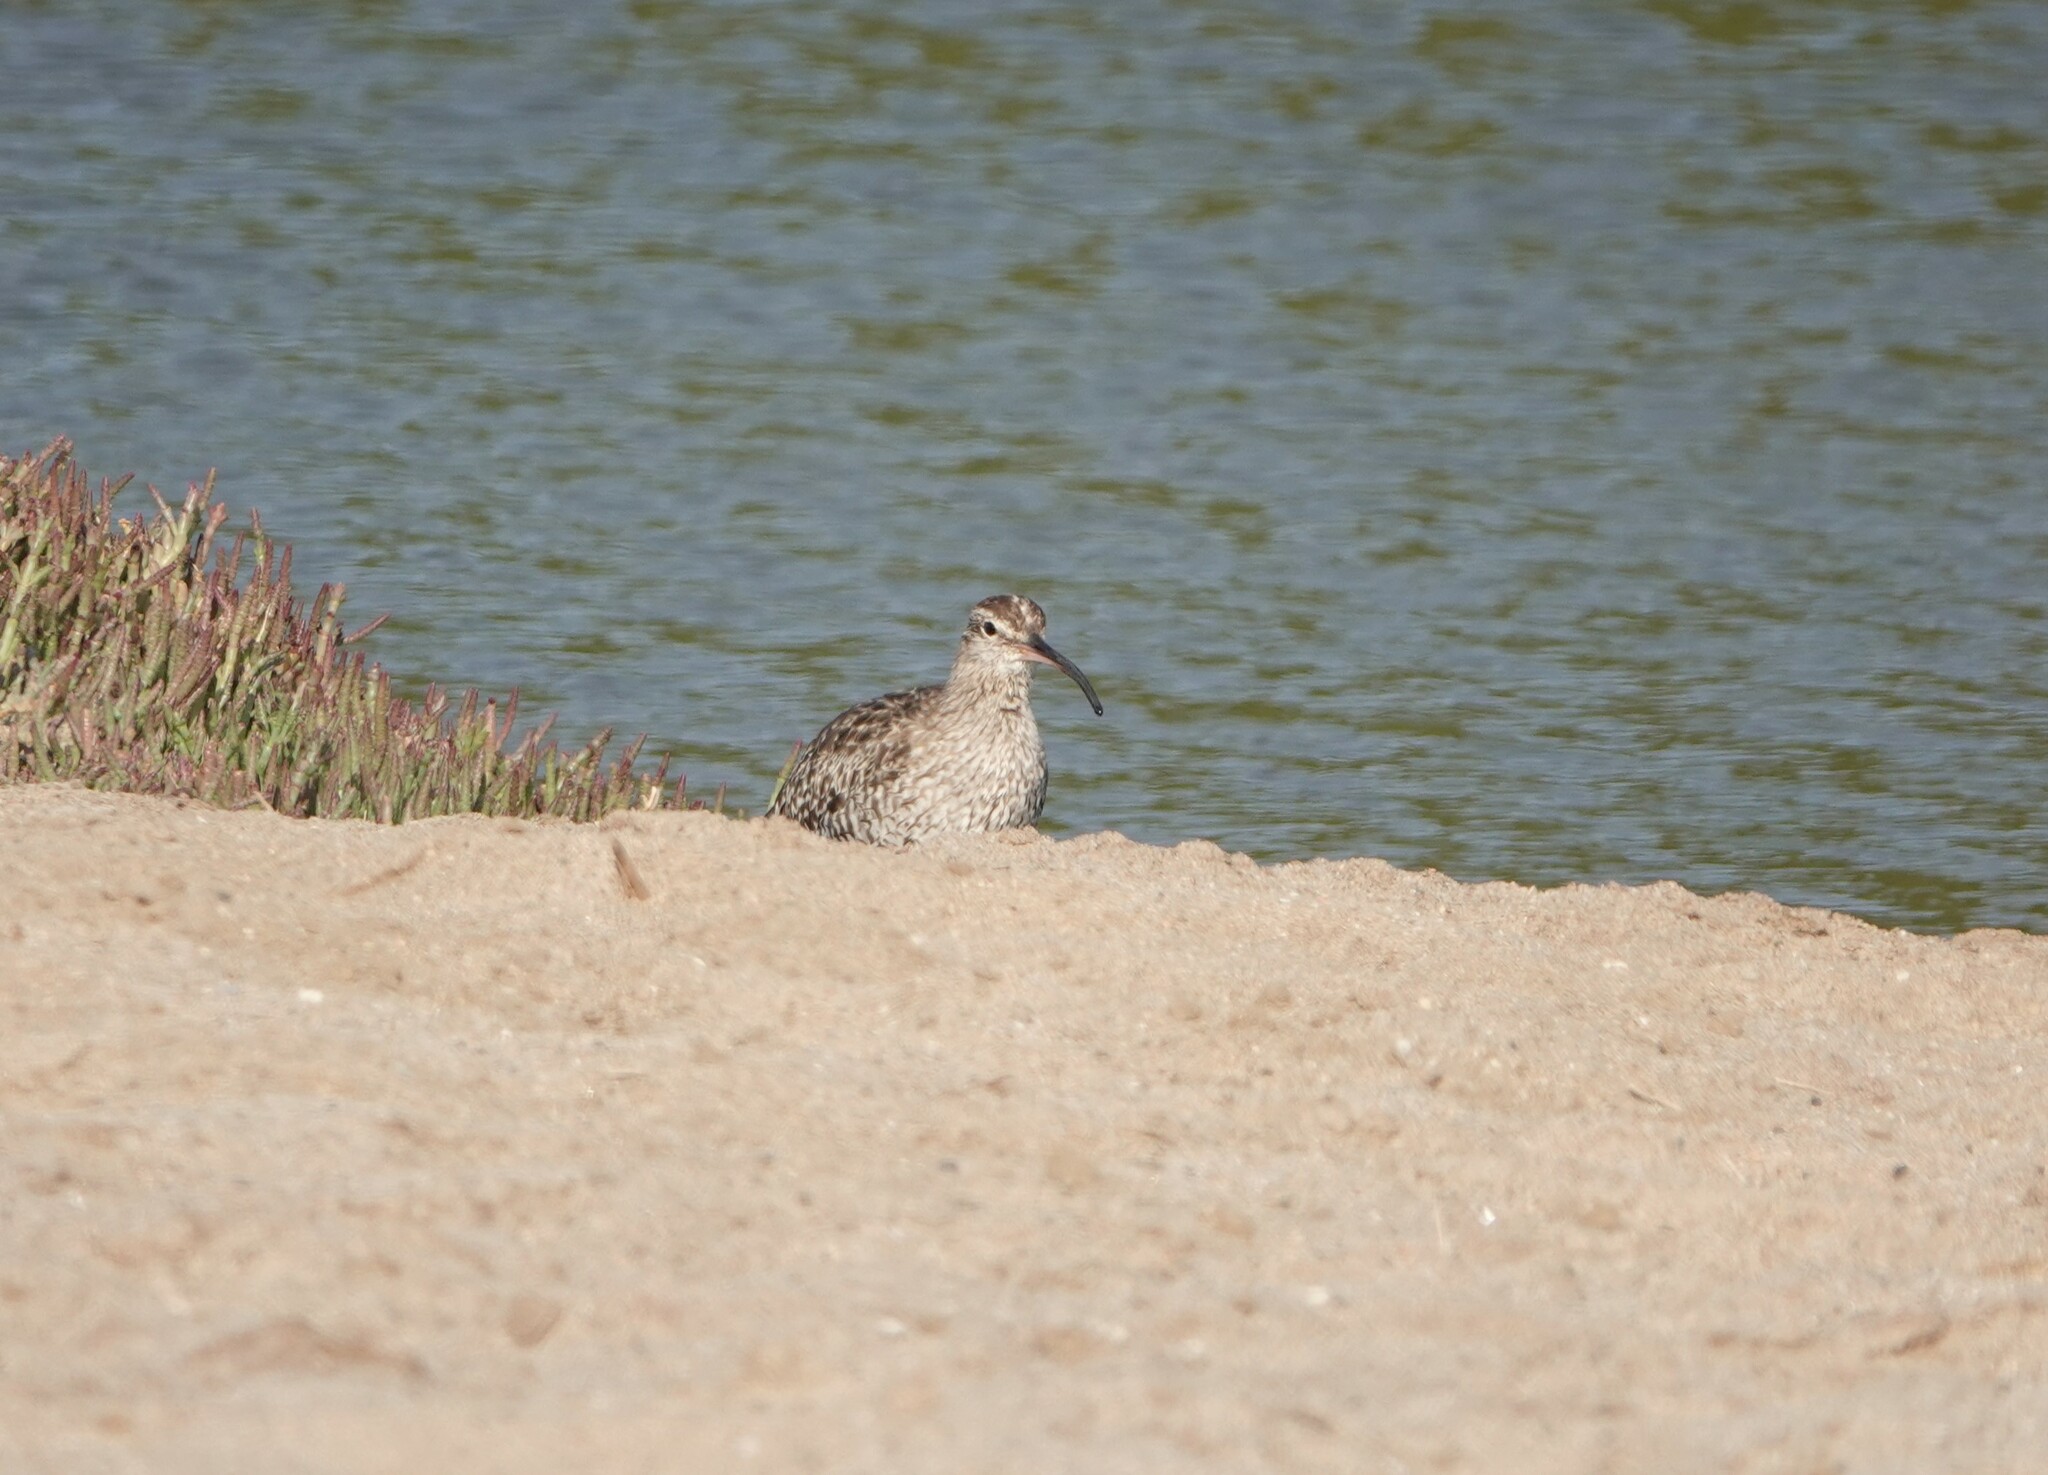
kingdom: Animalia
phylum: Chordata
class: Aves
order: Charadriiformes
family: Scolopacidae
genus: Numenius
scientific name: Numenius phaeopus
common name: Whimbrel
